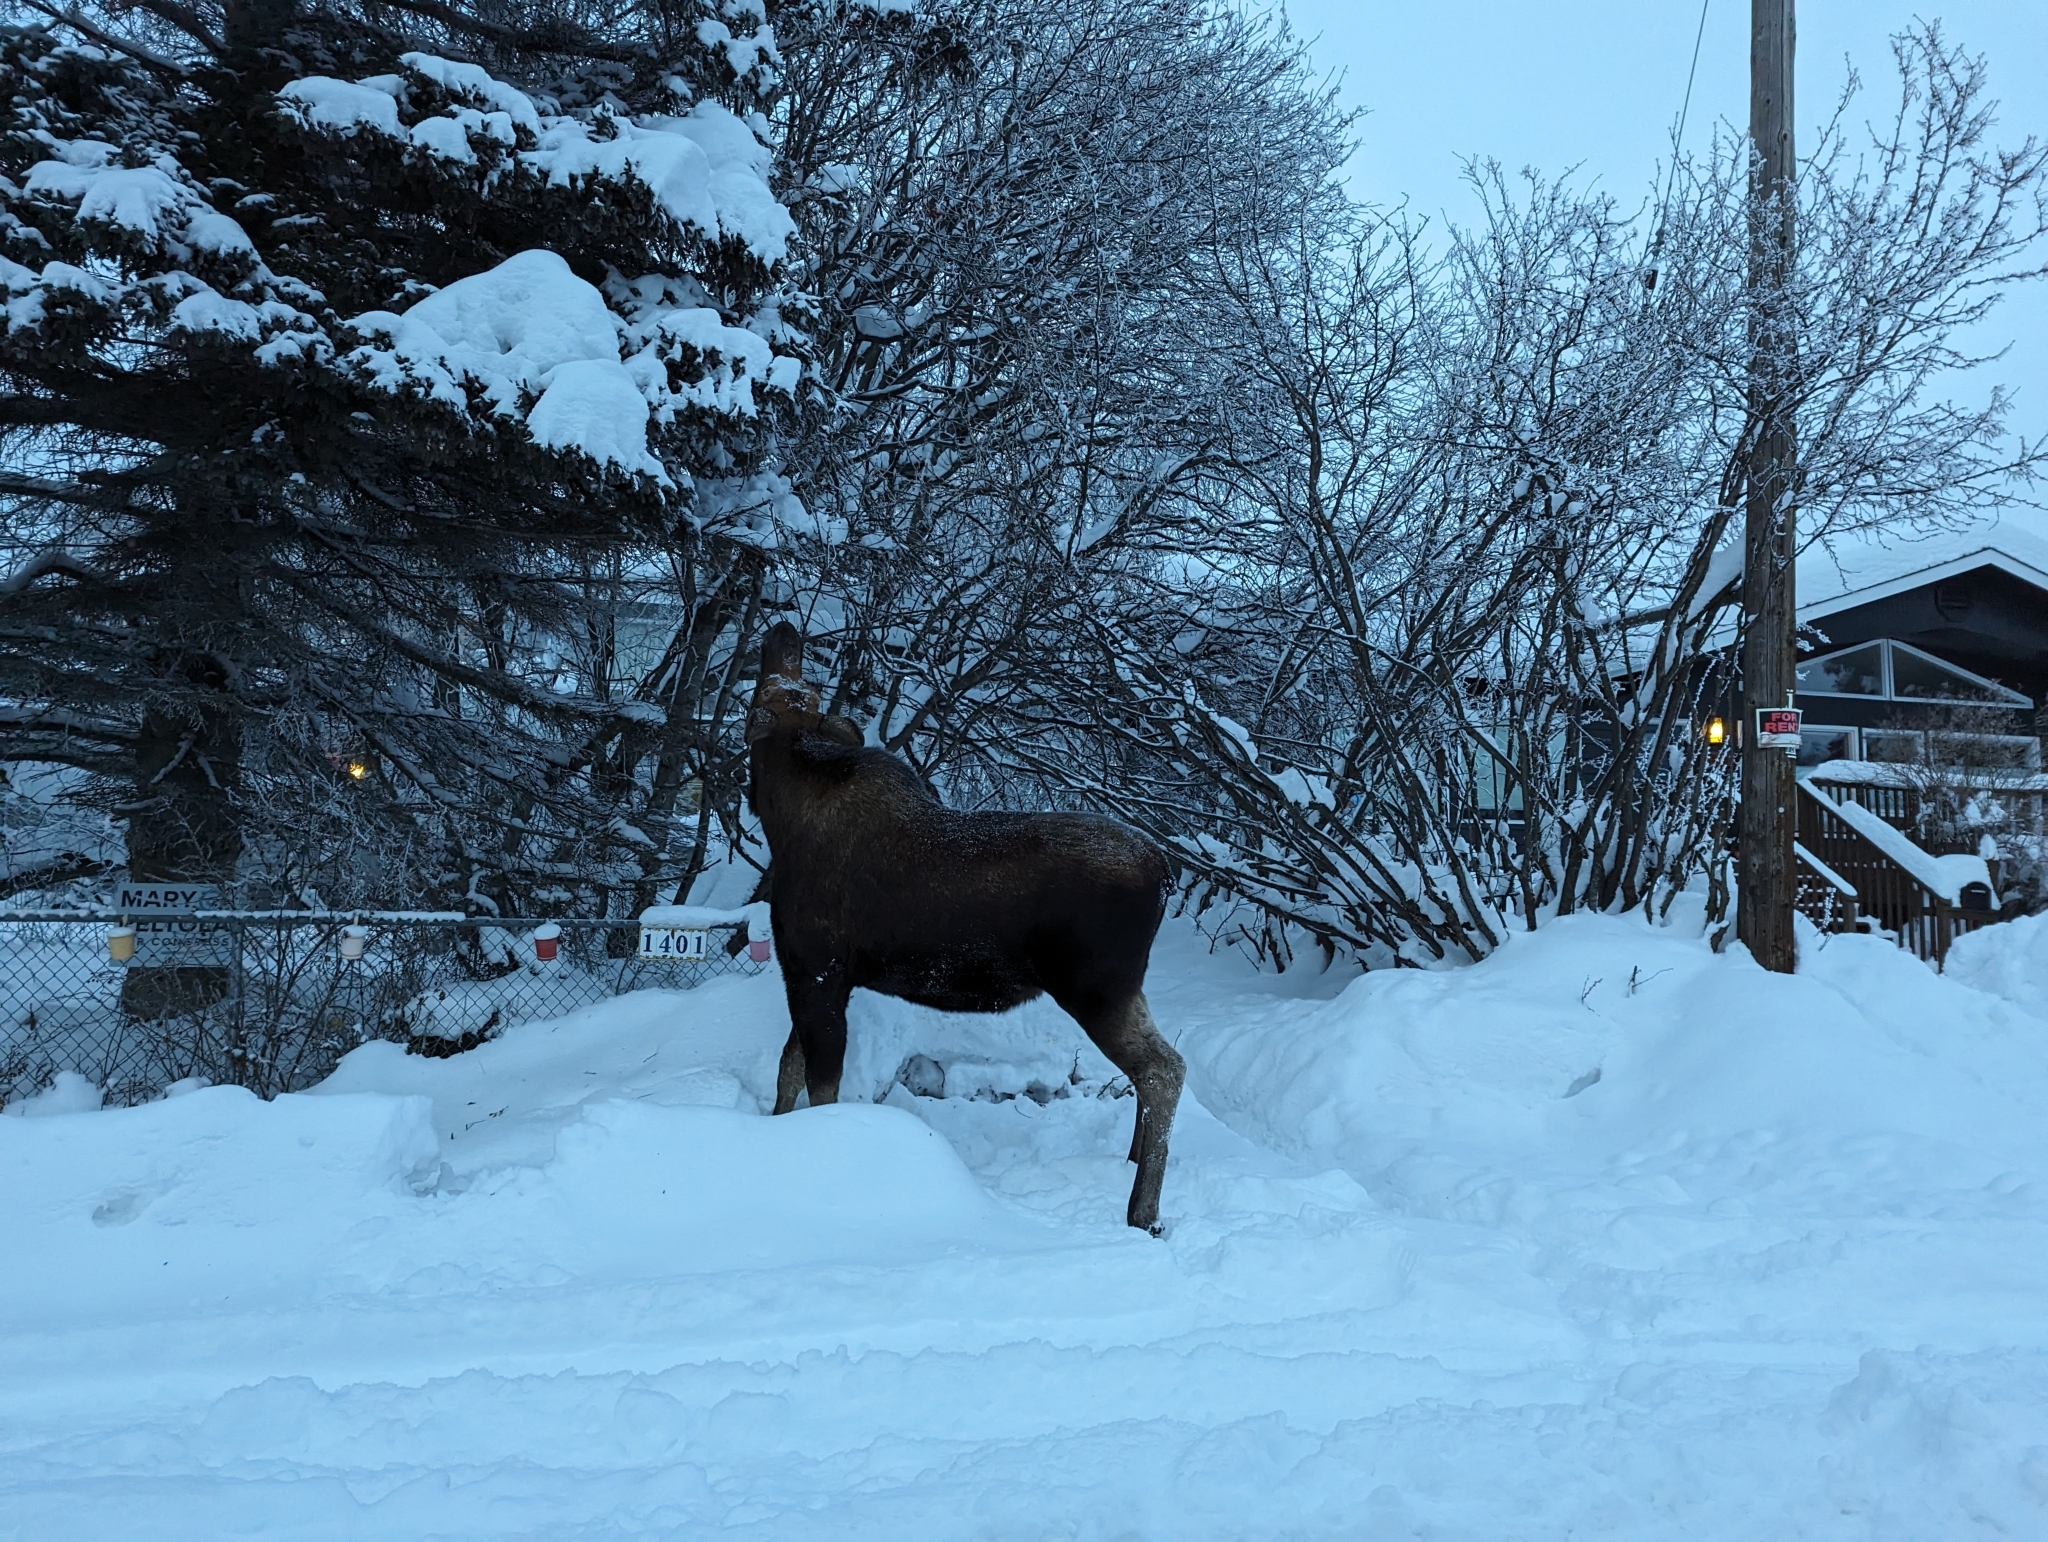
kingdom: Animalia
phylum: Chordata
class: Mammalia
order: Artiodactyla
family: Cervidae
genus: Alces
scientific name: Alces alces
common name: Moose
